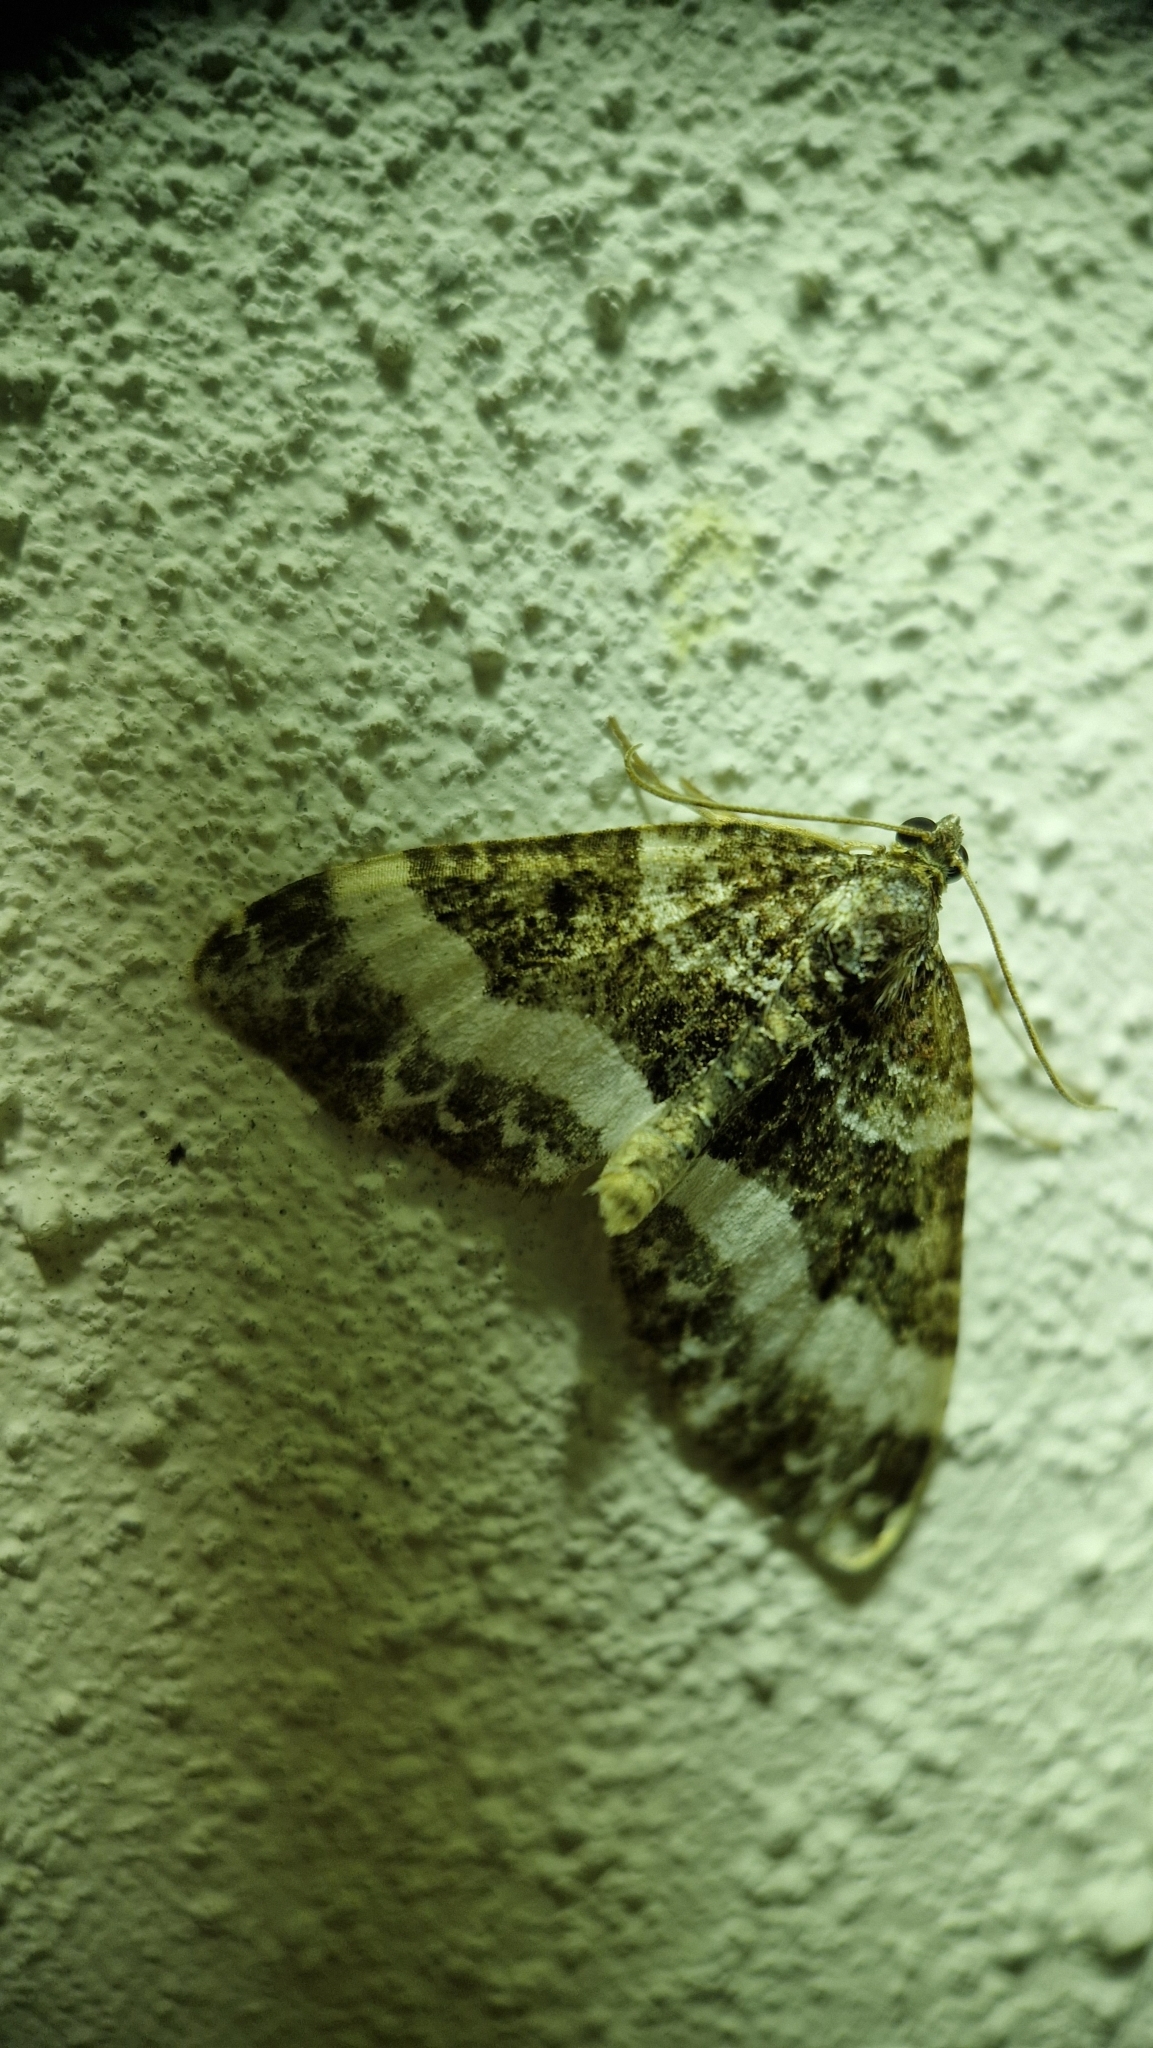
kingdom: Animalia
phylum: Arthropoda
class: Insecta
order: Lepidoptera
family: Geometridae
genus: Euphyia
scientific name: Euphyia unangulata
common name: Sharp-angled carpet
